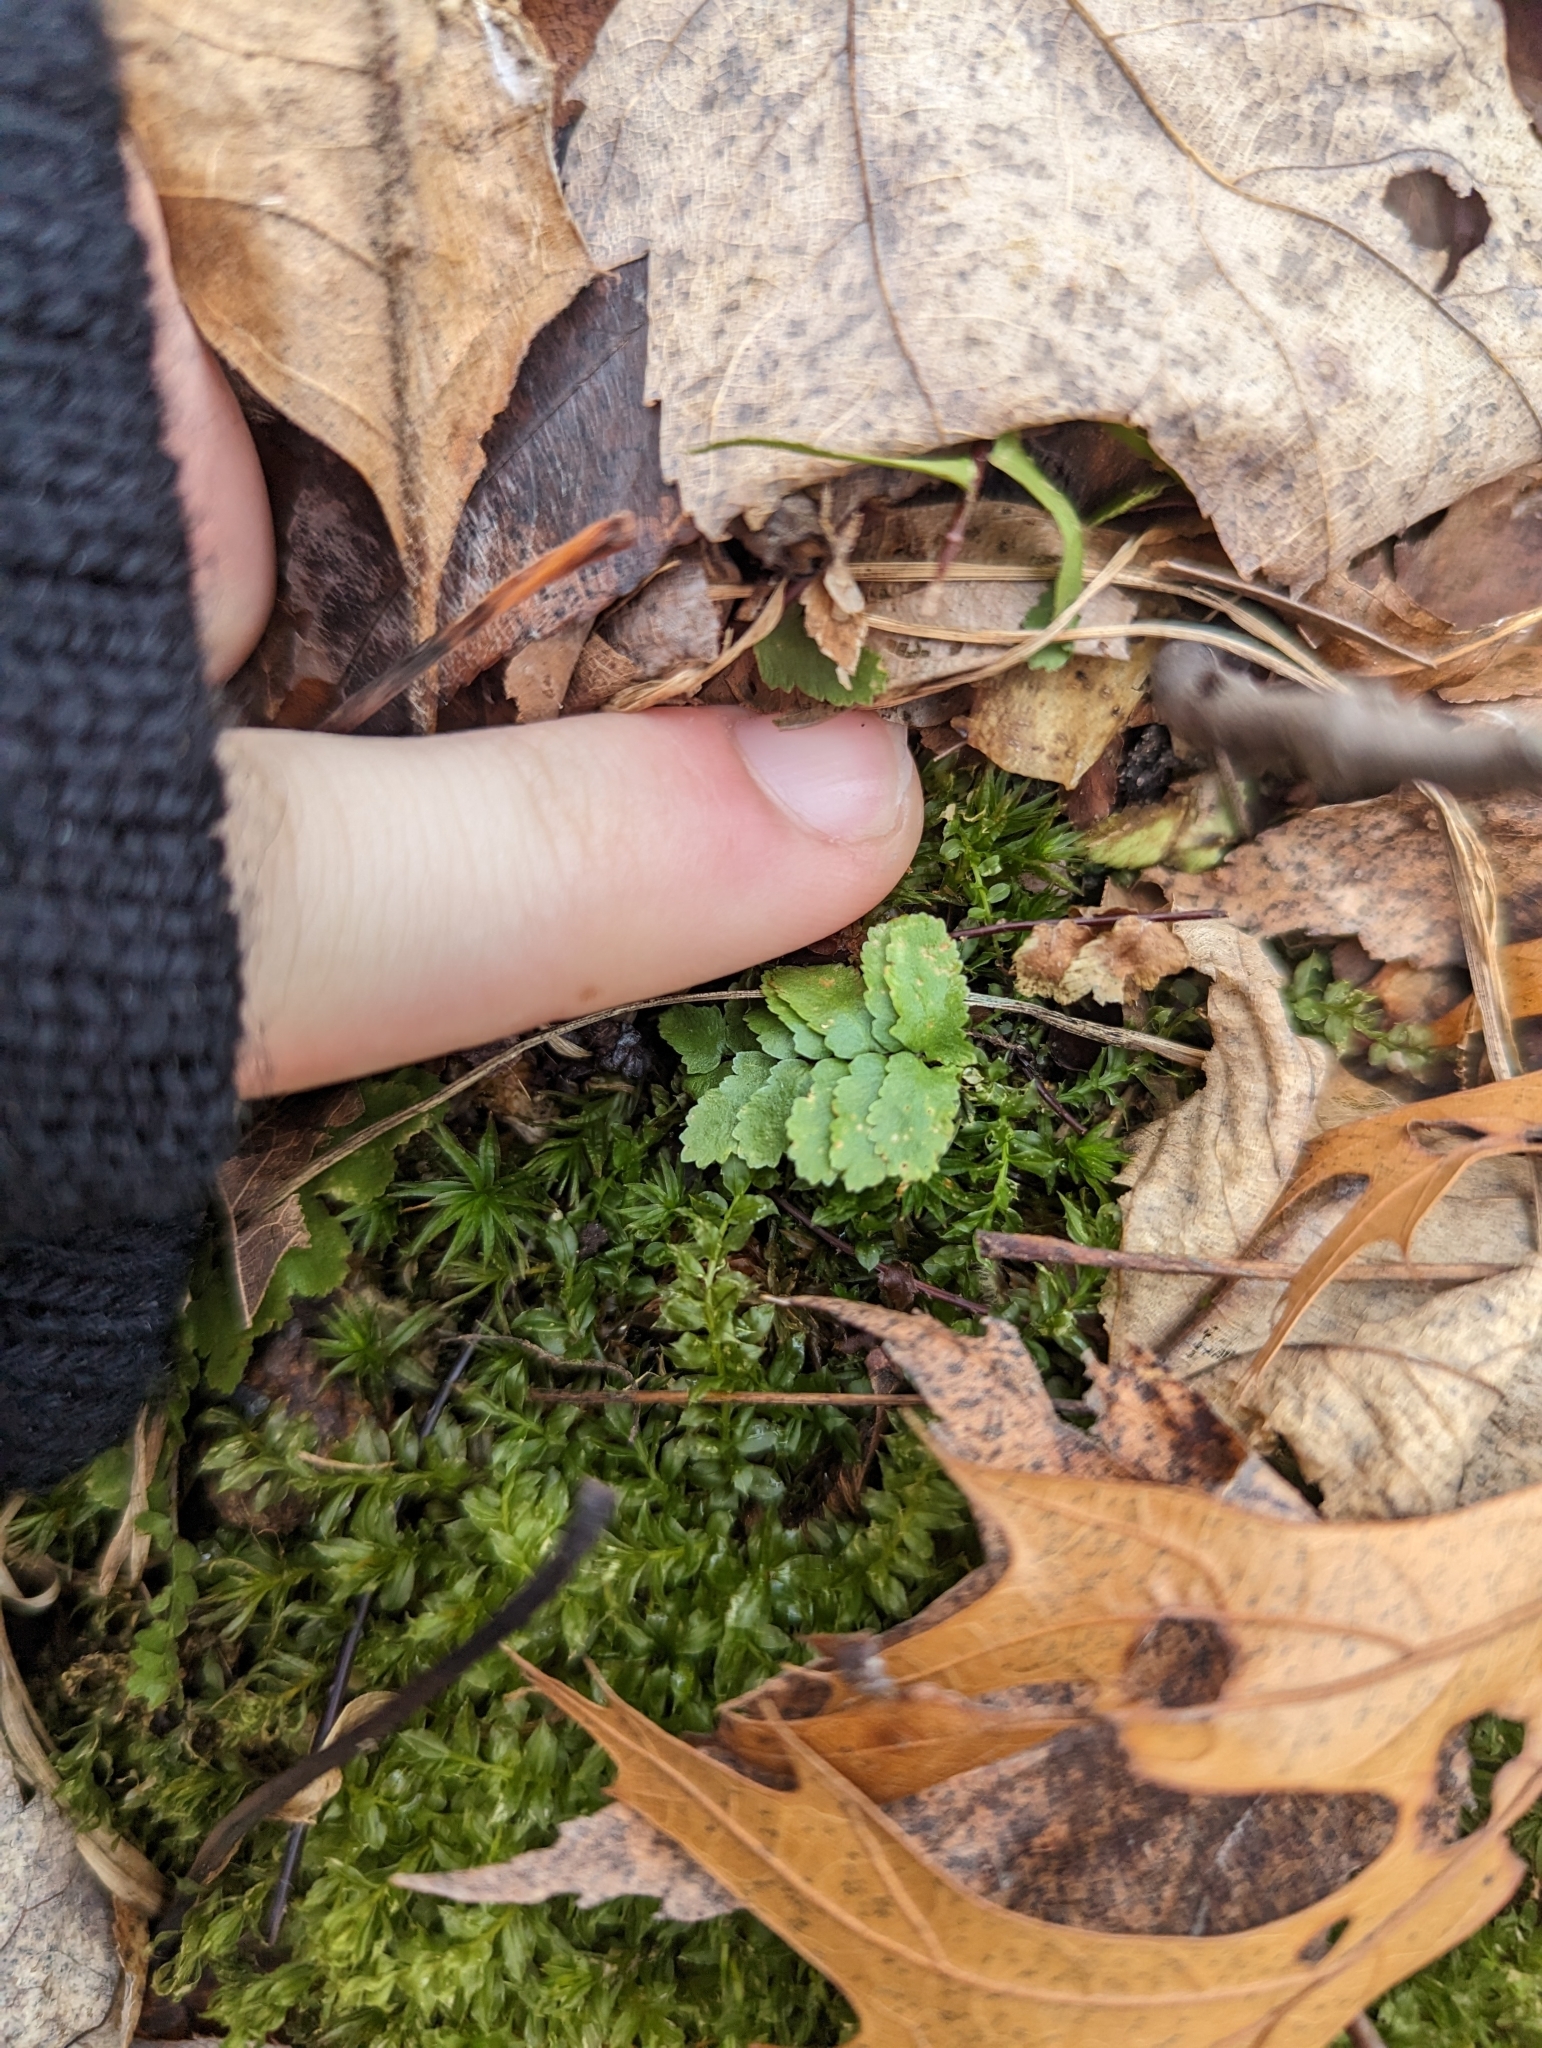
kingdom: Plantae
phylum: Tracheophyta
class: Polypodiopsida
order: Polypodiales
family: Aspleniaceae
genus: Asplenium
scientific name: Asplenium platyneuron
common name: Ebony spleenwort
